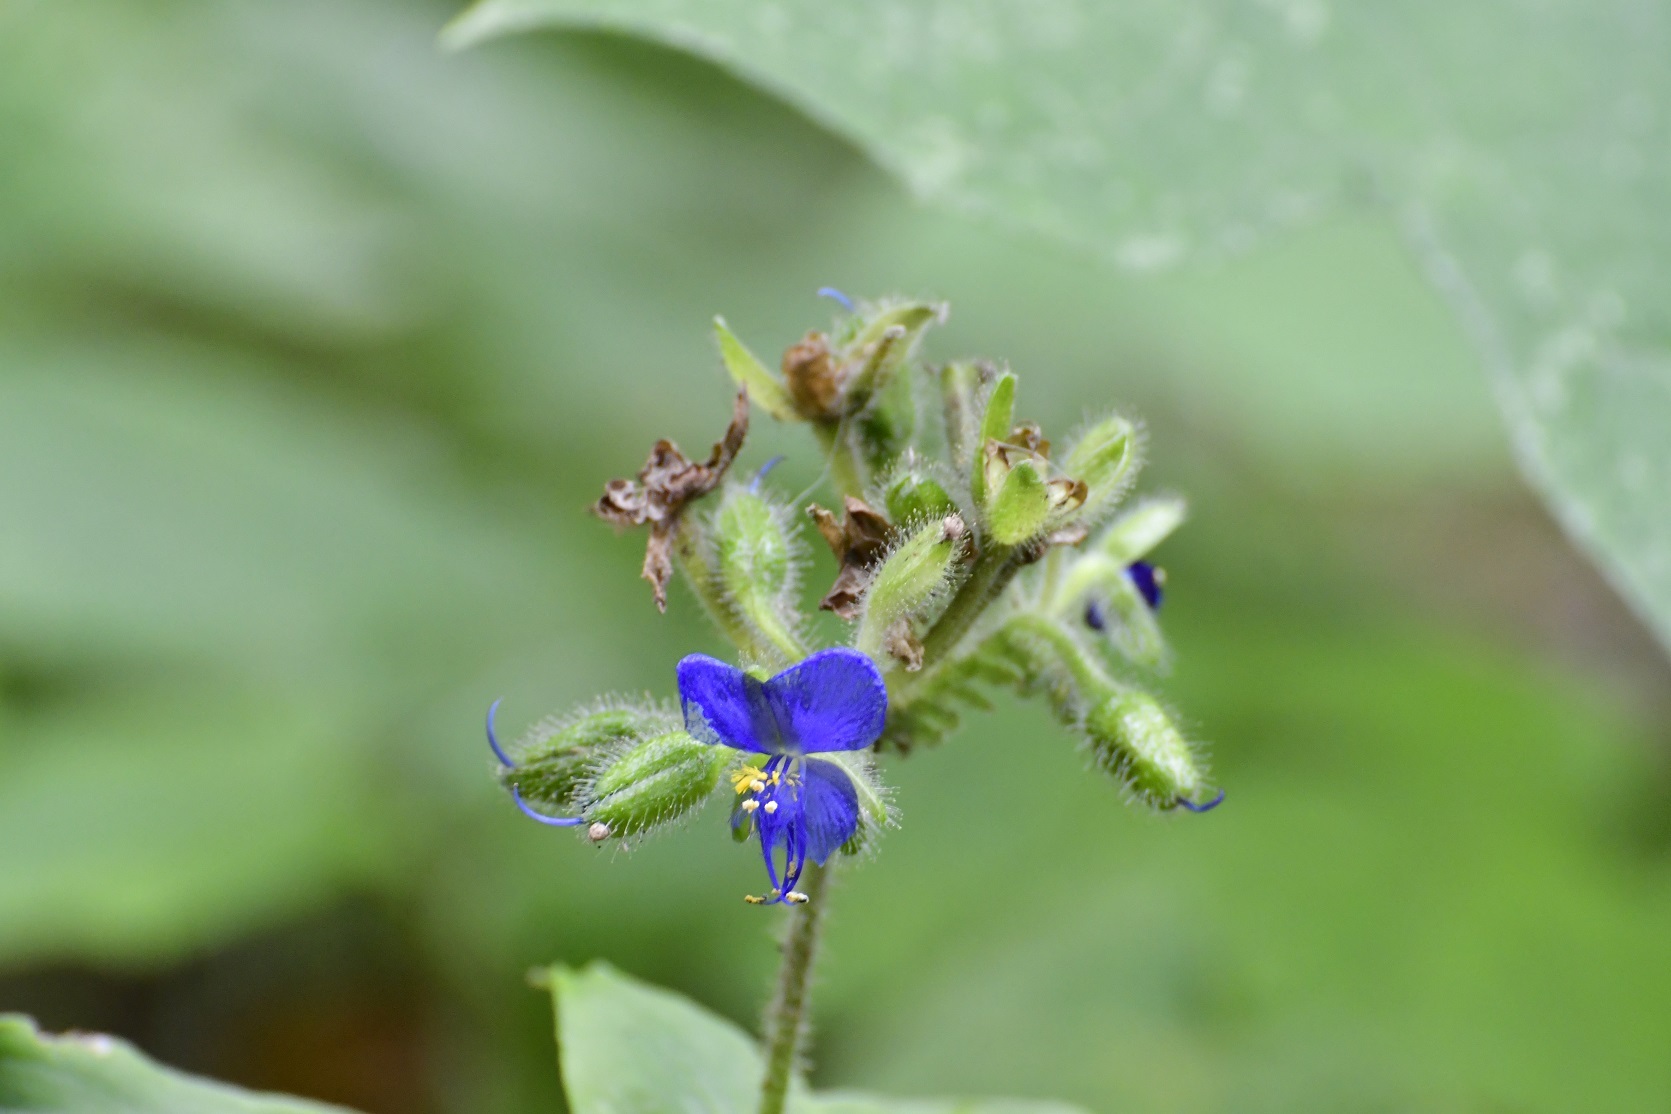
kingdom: Plantae
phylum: Tracheophyta
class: Liliopsida
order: Commelinales
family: Commelinaceae
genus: Tinantia
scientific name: Tinantia erecta
